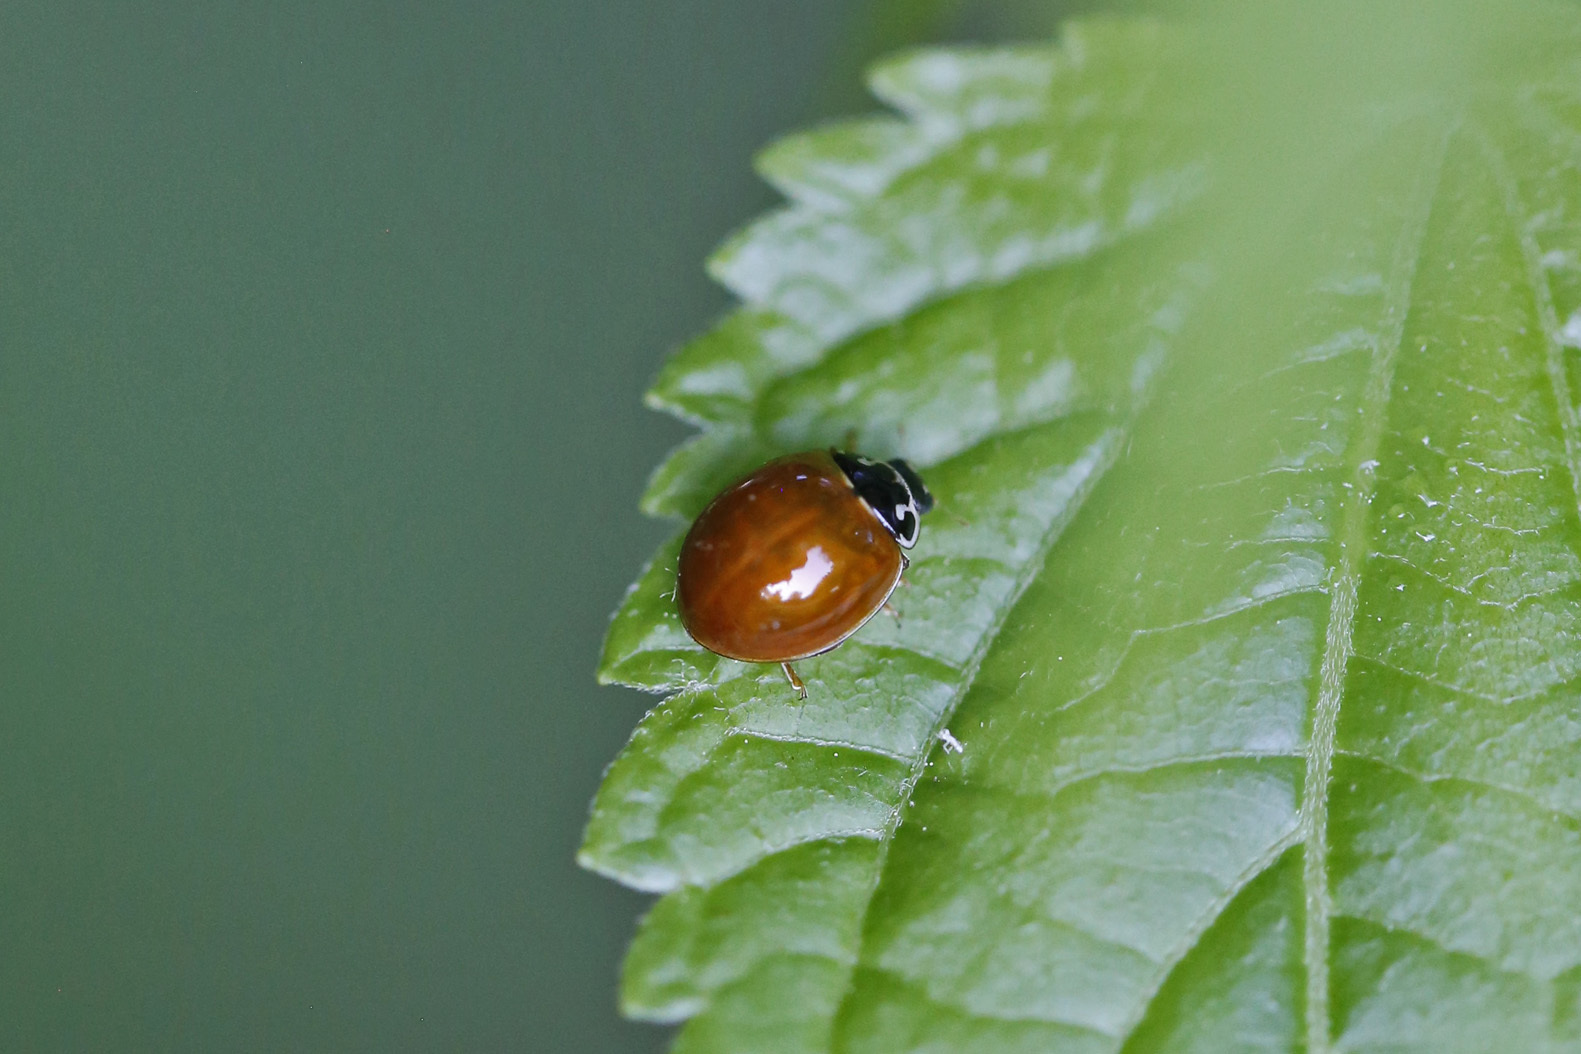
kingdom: Animalia
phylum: Arthropoda
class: Insecta
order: Coleoptera
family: Coccinellidae
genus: Cycloneda
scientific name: Cycloneda munda
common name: Polished lady beetle
